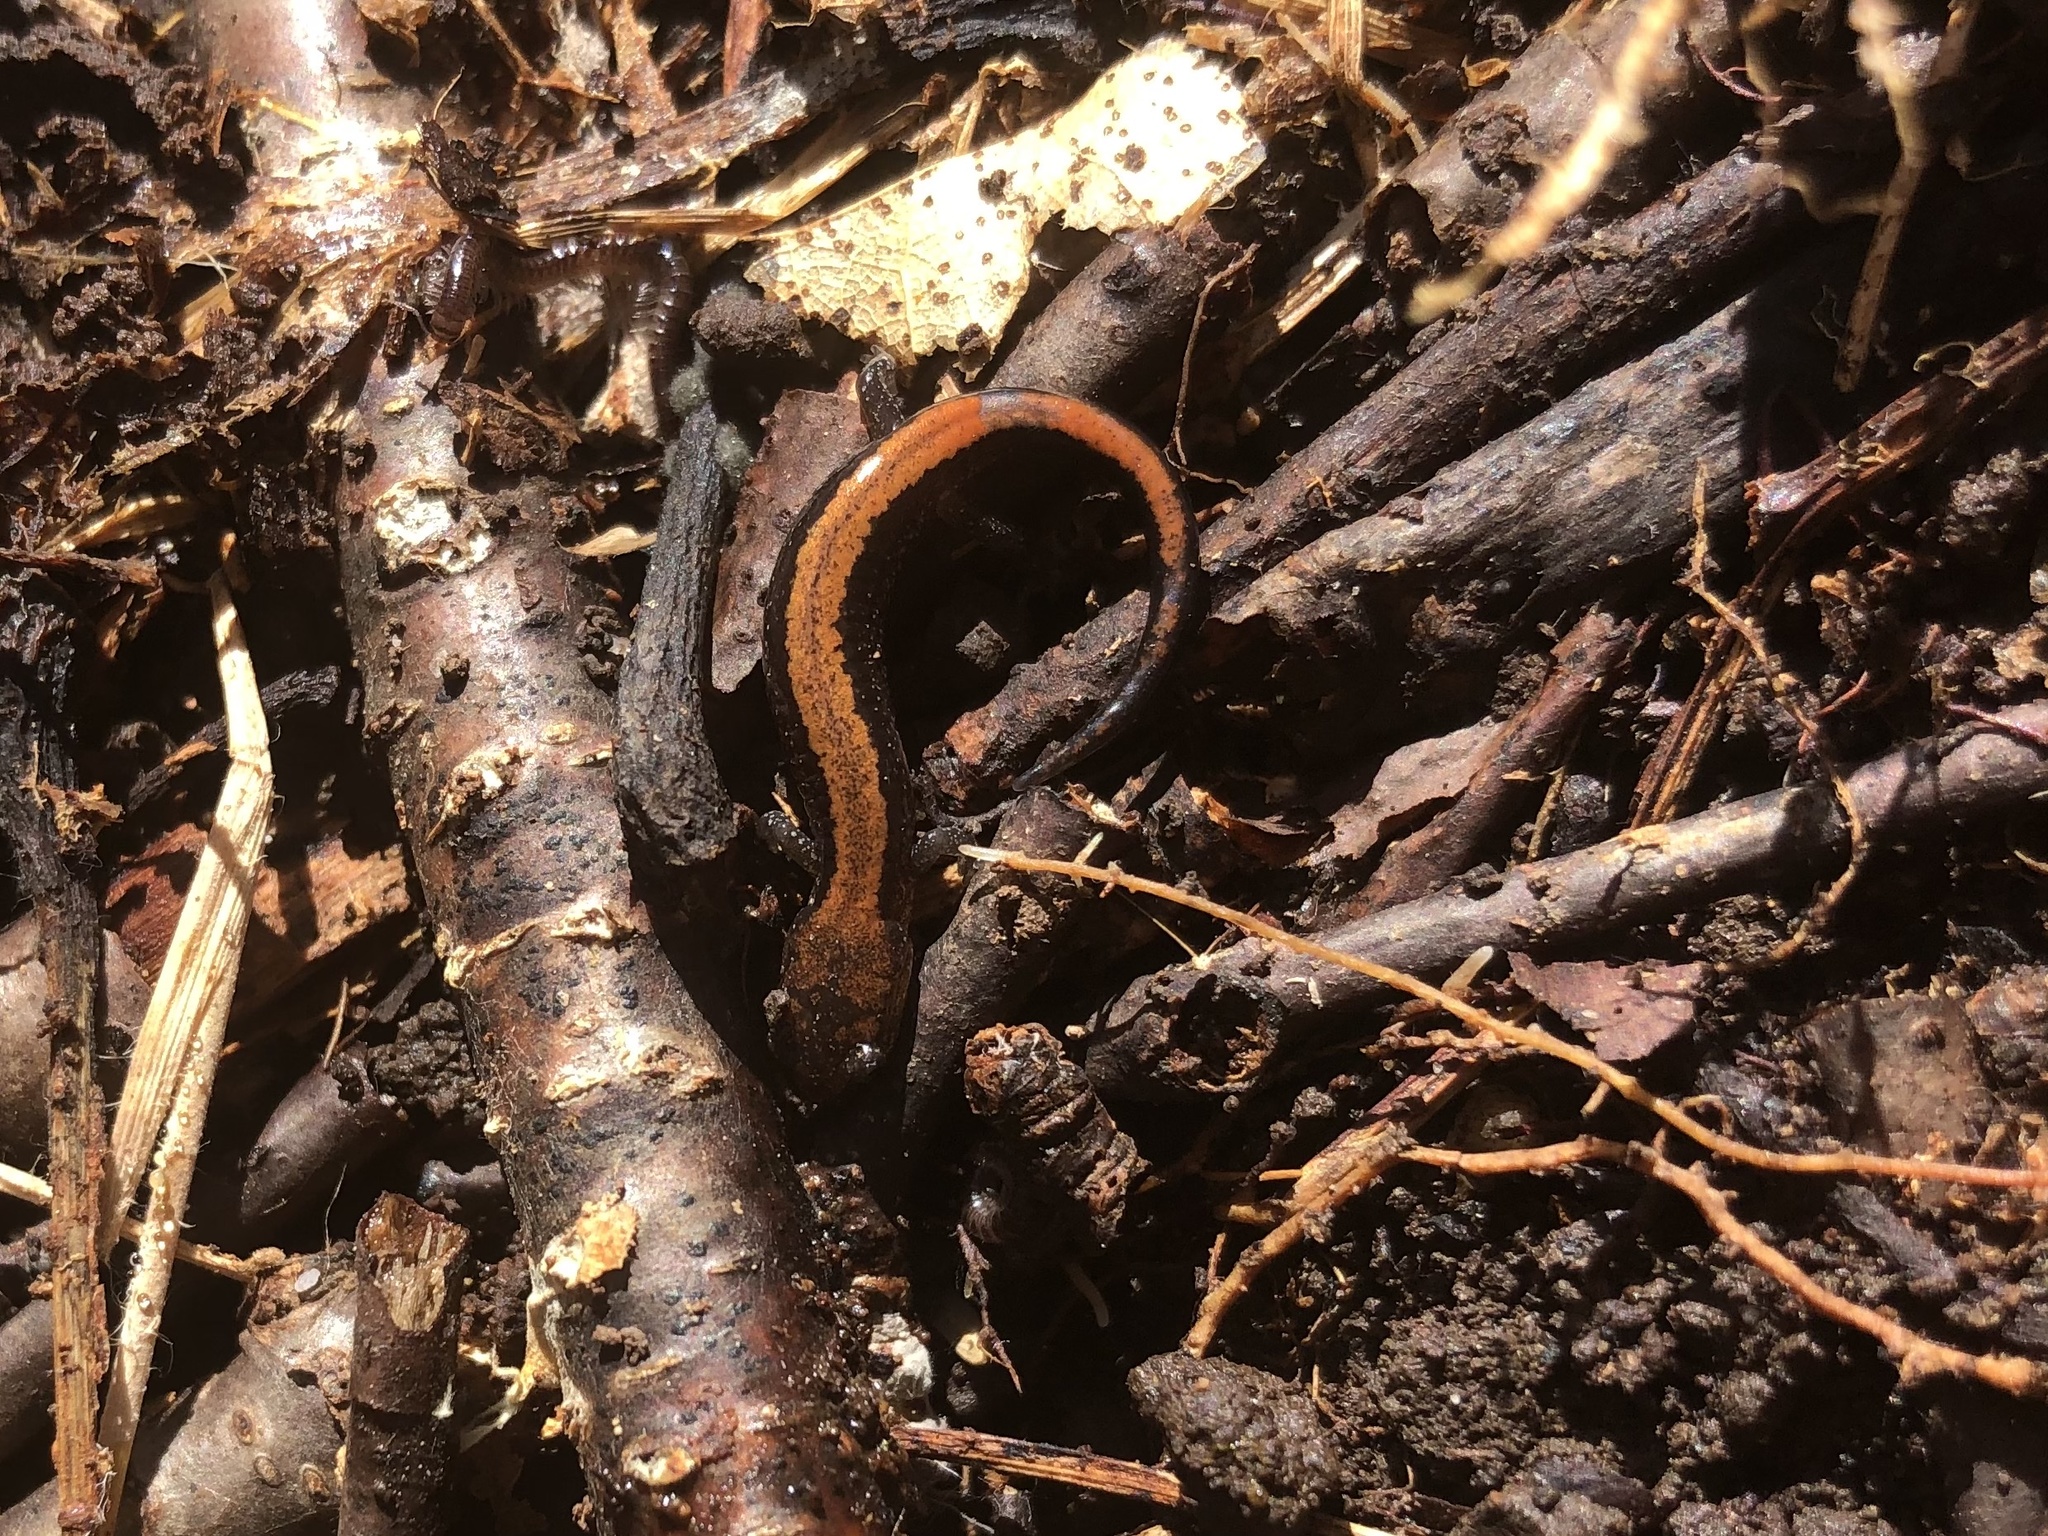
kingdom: Animalia
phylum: Chordata
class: Amphibia
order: Caudata
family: Plethodontidae
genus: Plethodon
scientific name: Plethodon cinereus
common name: Redback salamander
